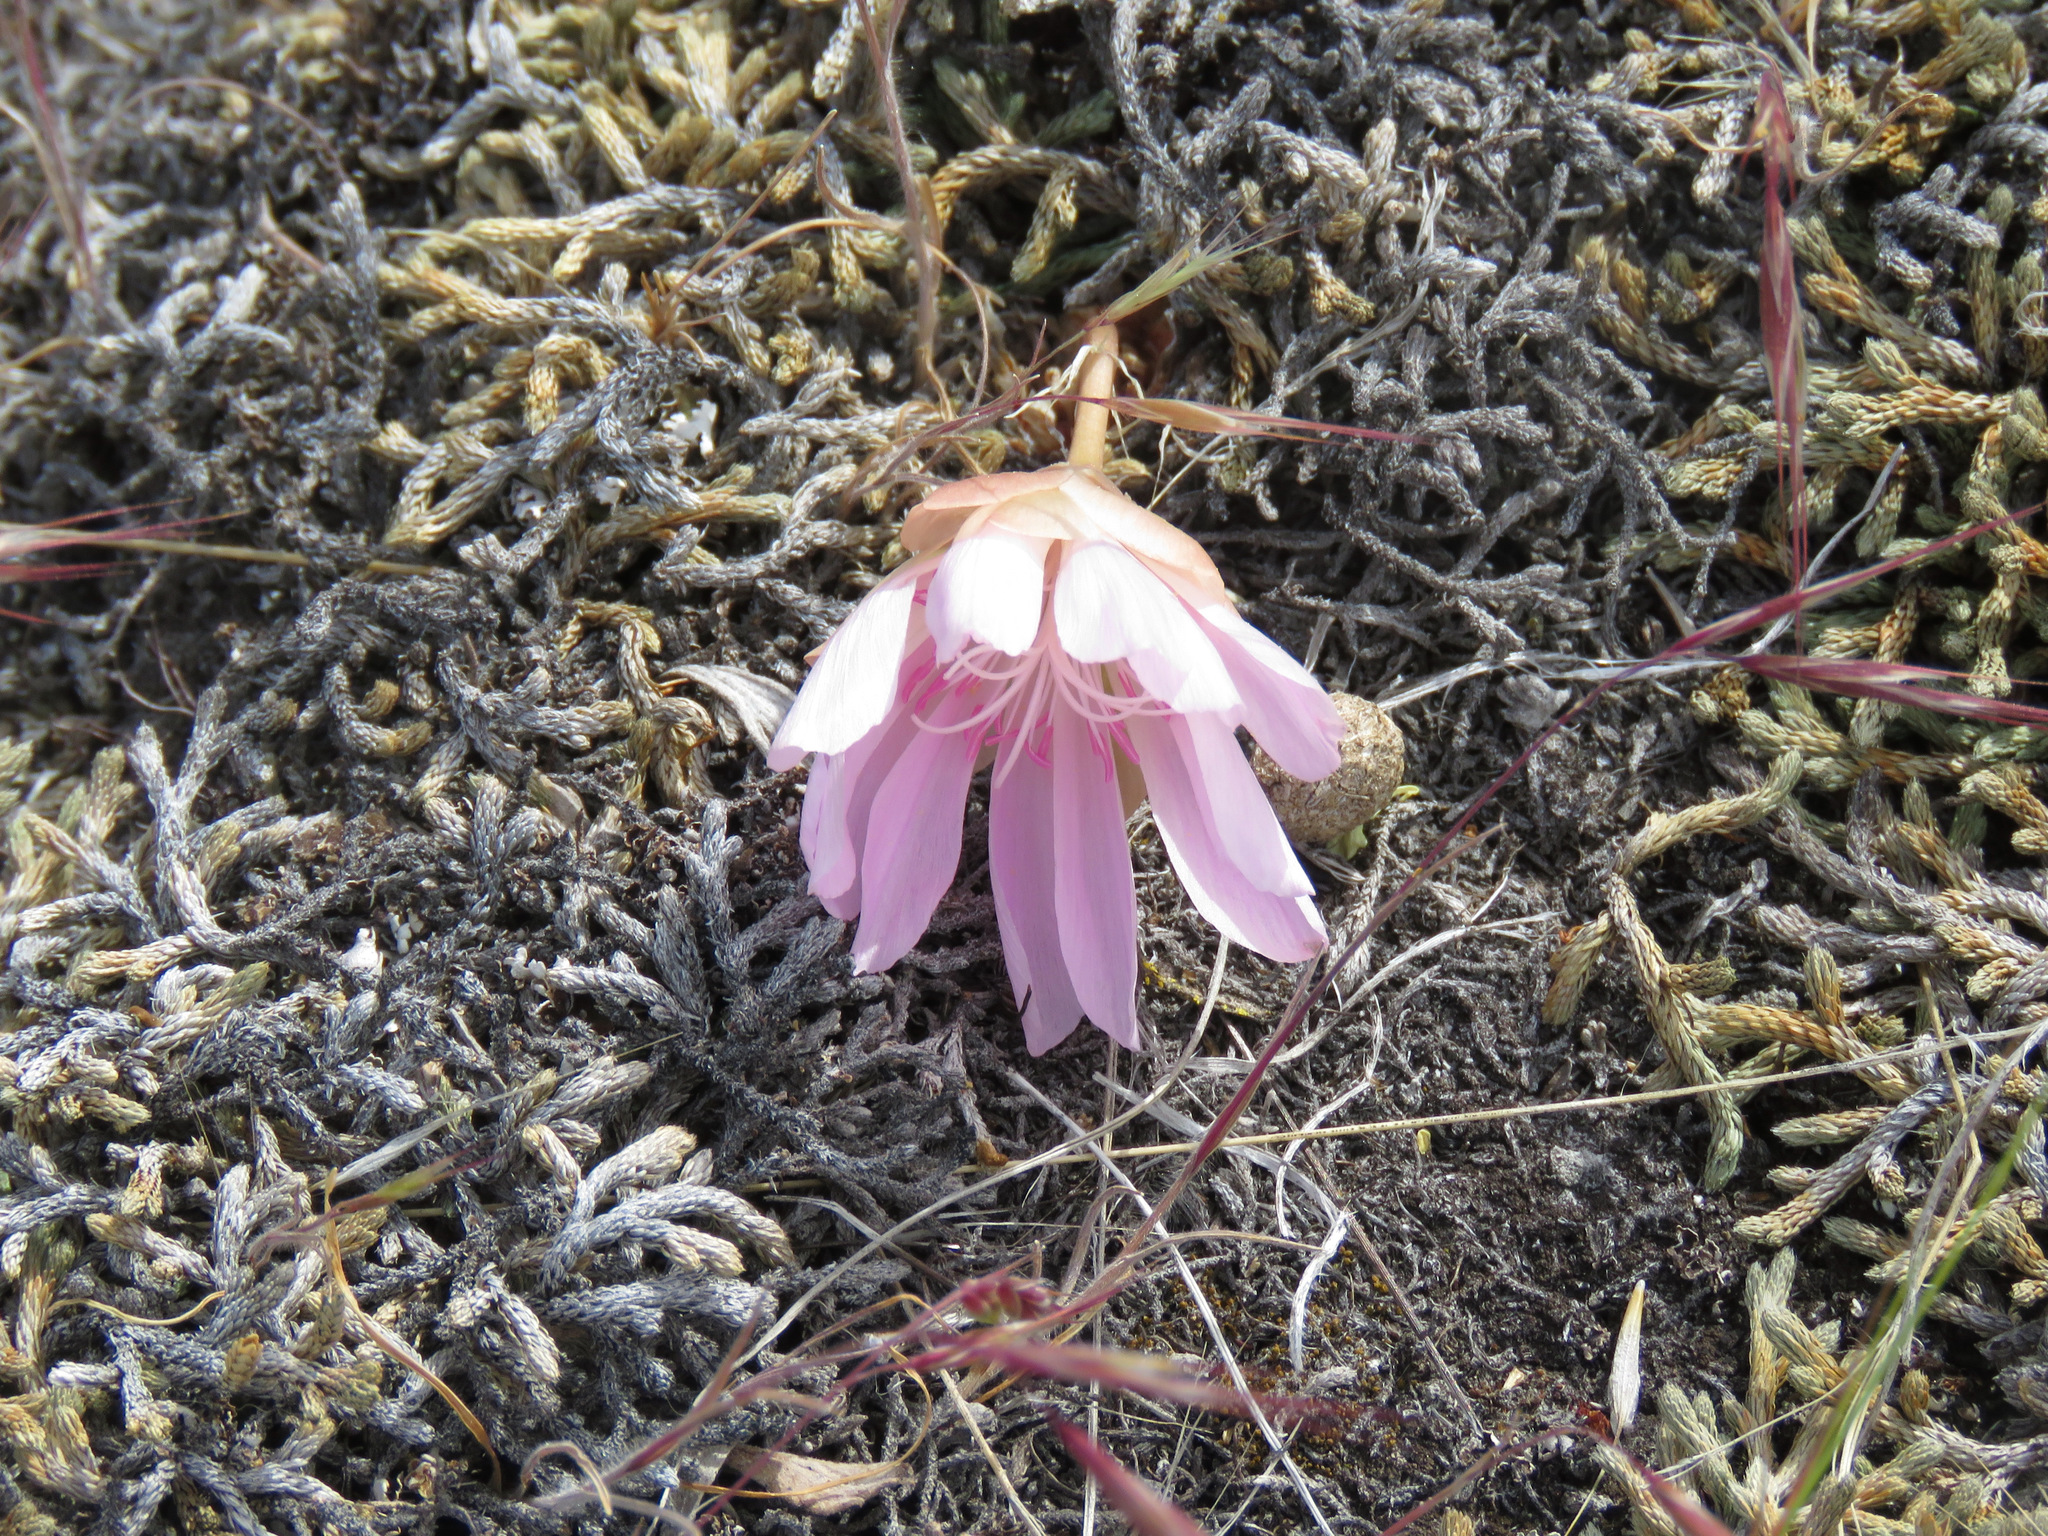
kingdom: Plantae
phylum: Tracheophyta
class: Magnoliopsida
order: Caryophyllales
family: Montiaceae
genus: Lewisia
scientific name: Lewisia rediviva
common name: Bitter-root
